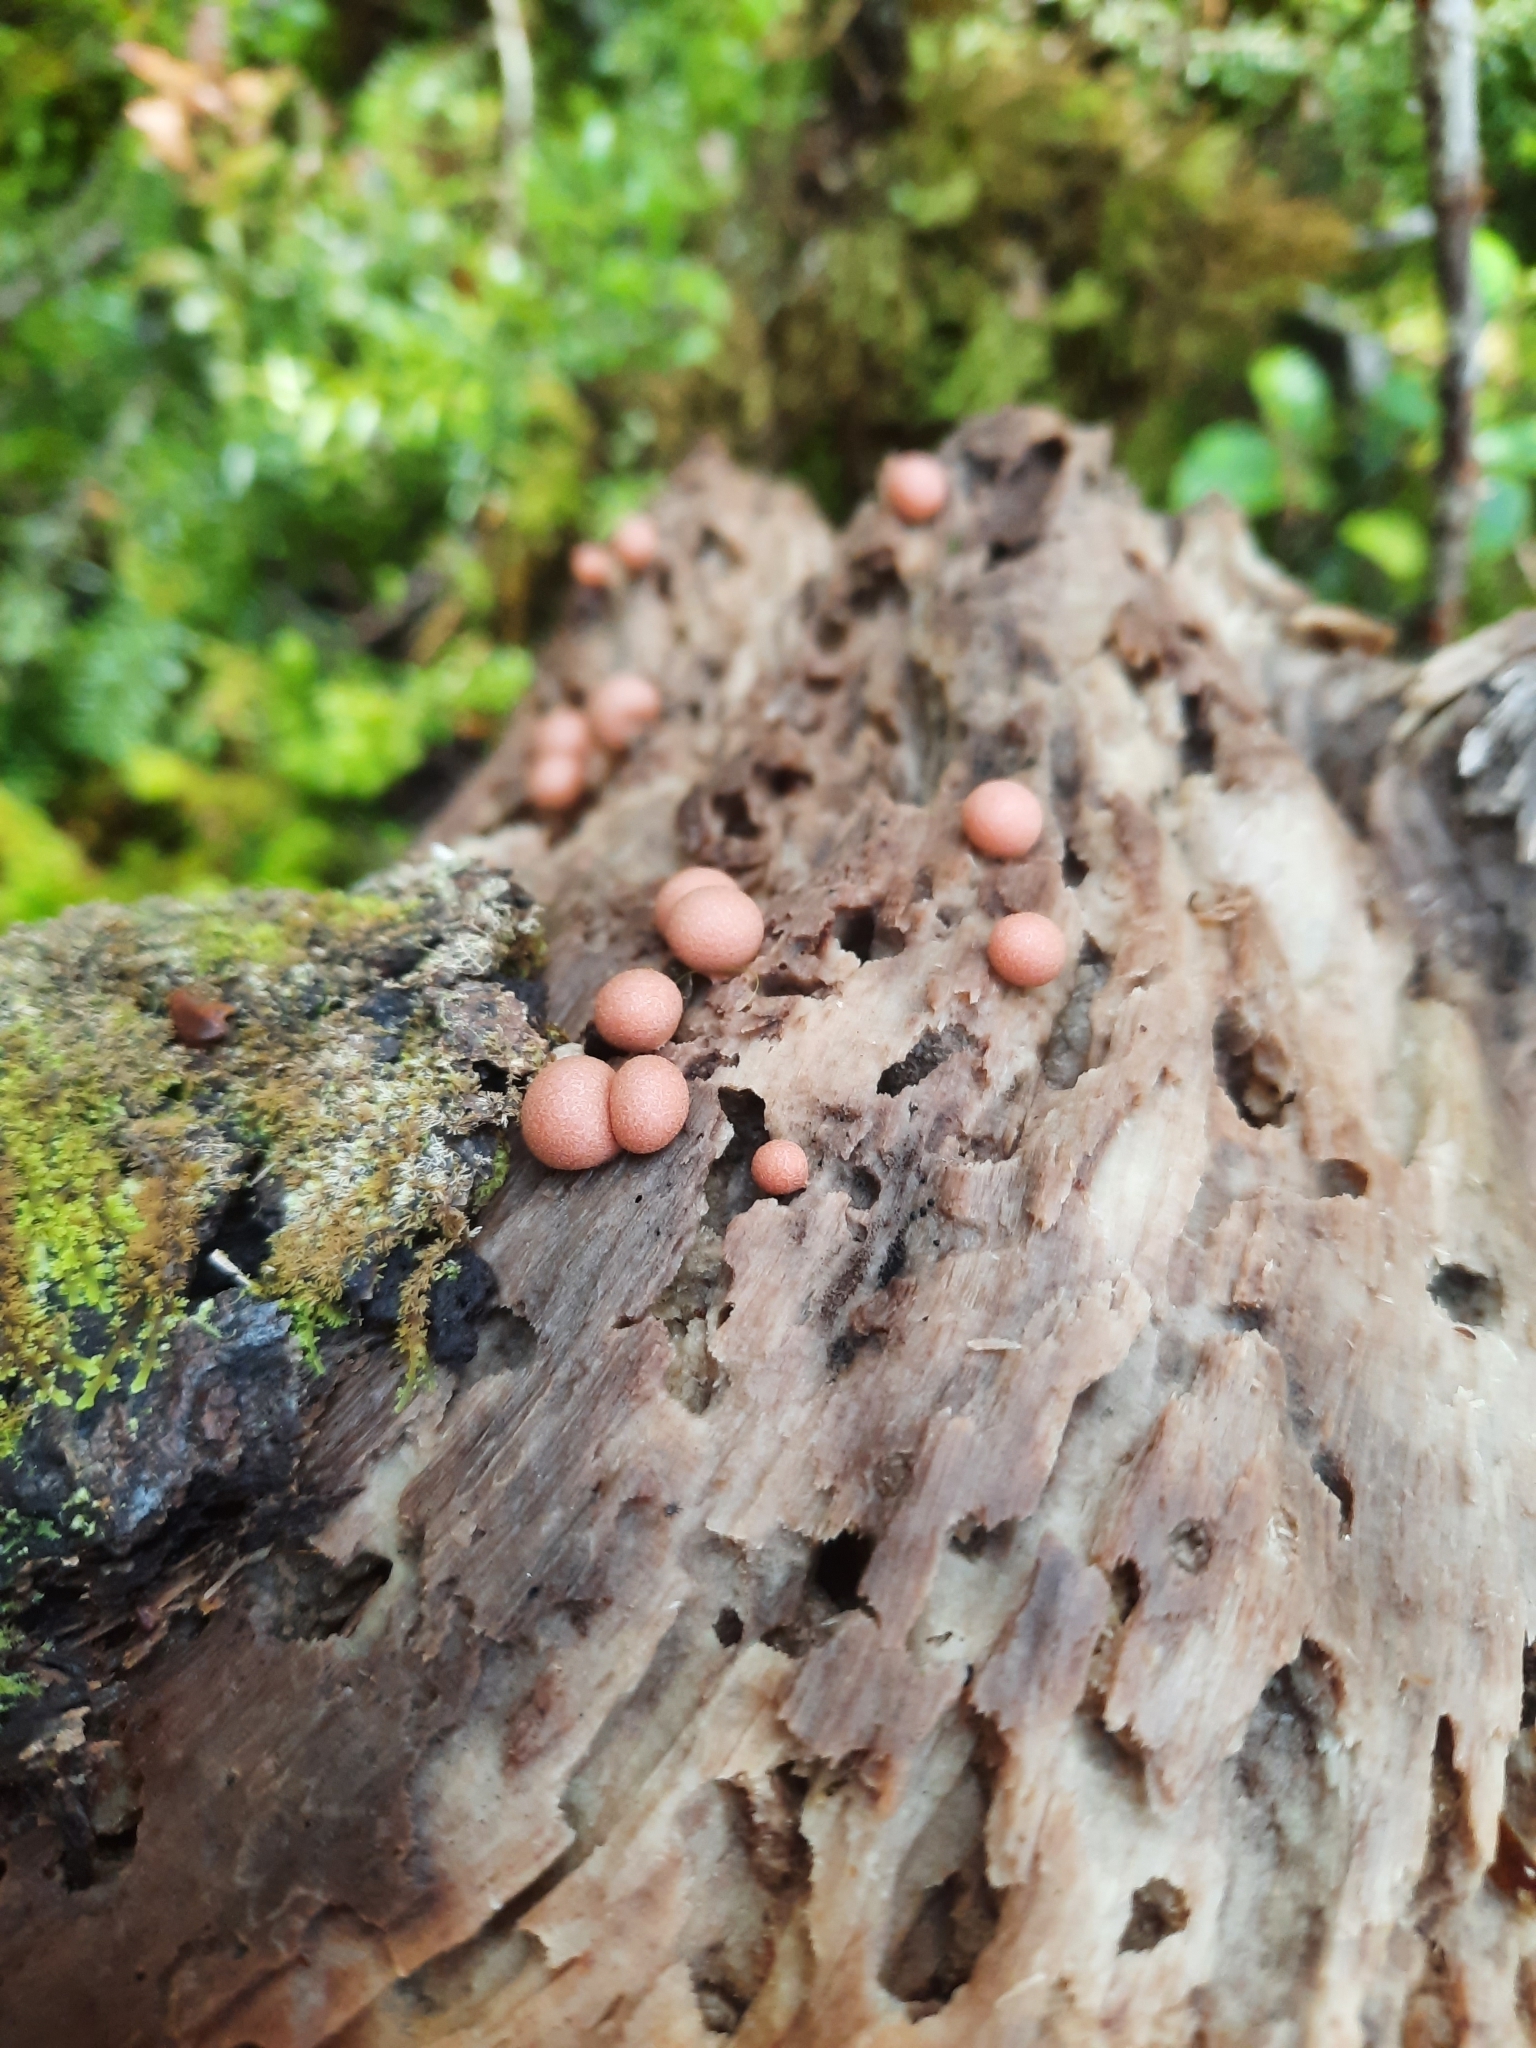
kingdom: Protozoa
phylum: Mycetozoa
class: Myxomycetes
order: Cribrariales
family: Tubiferaceae
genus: Lycogala
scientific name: Lycogala epidendrum
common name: Wolf's milk
